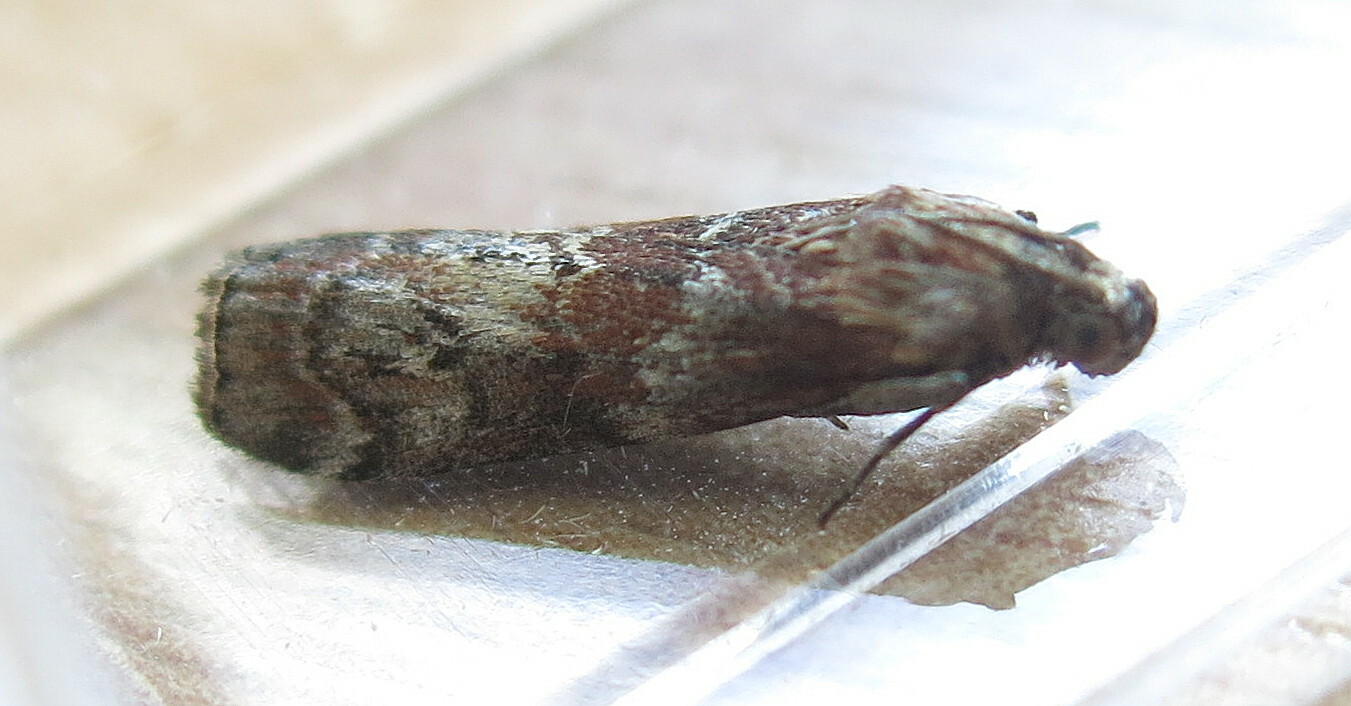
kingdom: Animalia
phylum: Arthropoda
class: Insecta
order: Lepidoptera
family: Pyralidae
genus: Phycita
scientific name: Phycita roborella
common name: Dotted oak knot-horn
